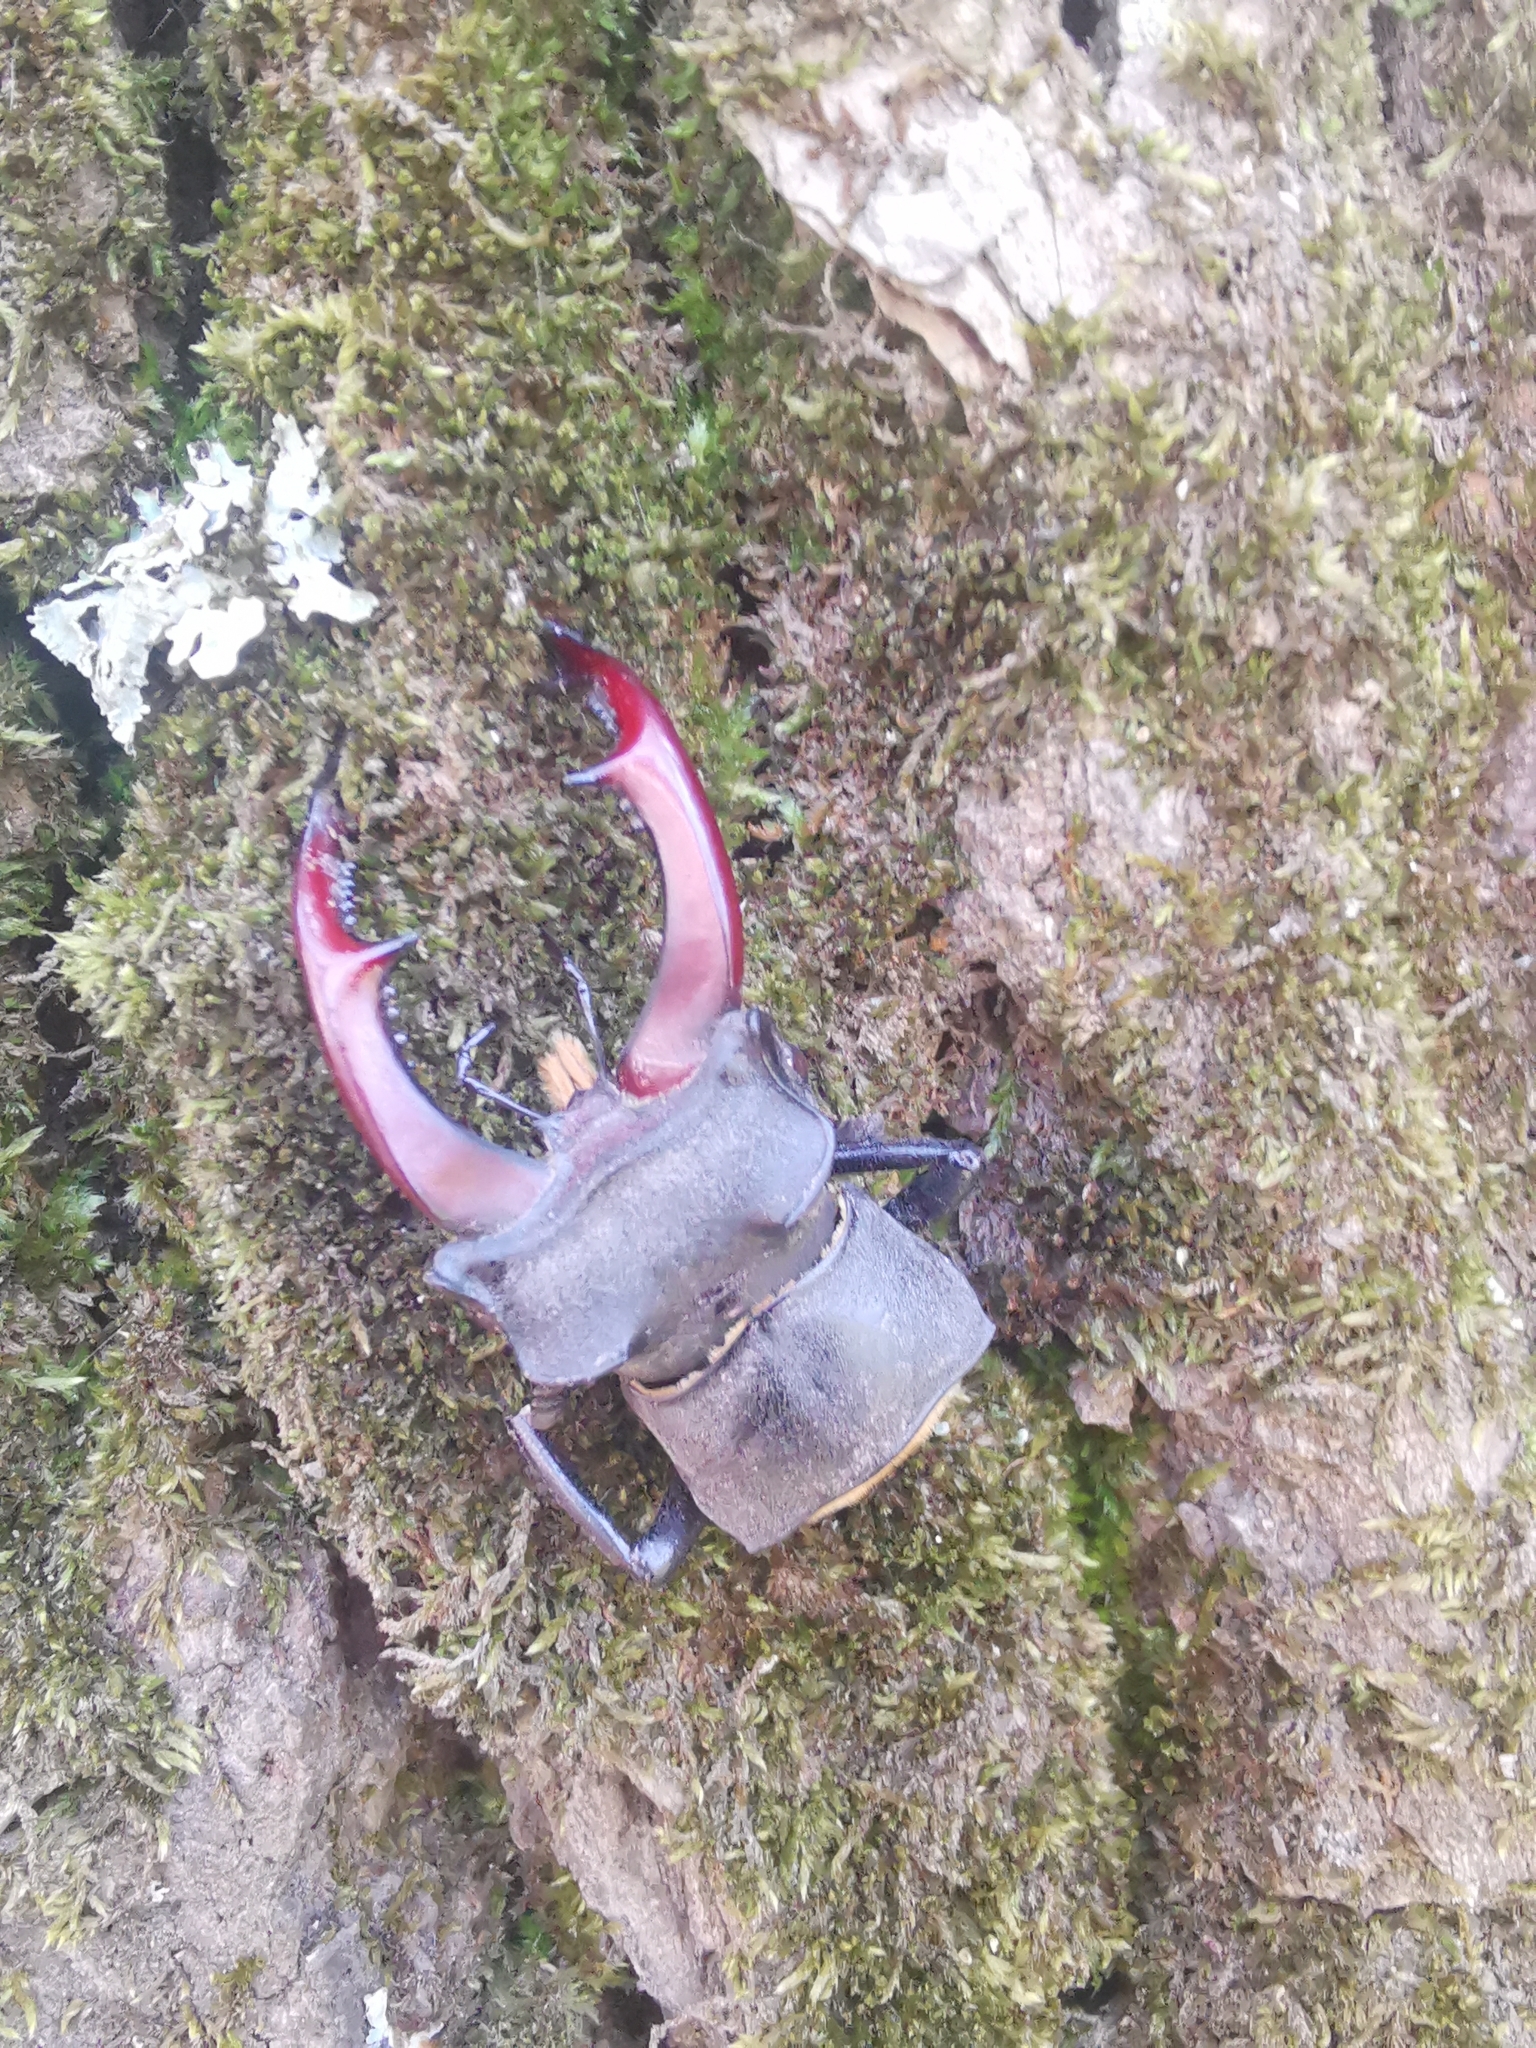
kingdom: Animalia
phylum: Arthropoda
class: Insecta
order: Coleoptera
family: Lucanidae
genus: Lucanus
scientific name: Lucanus cervus
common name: Stag beetle
